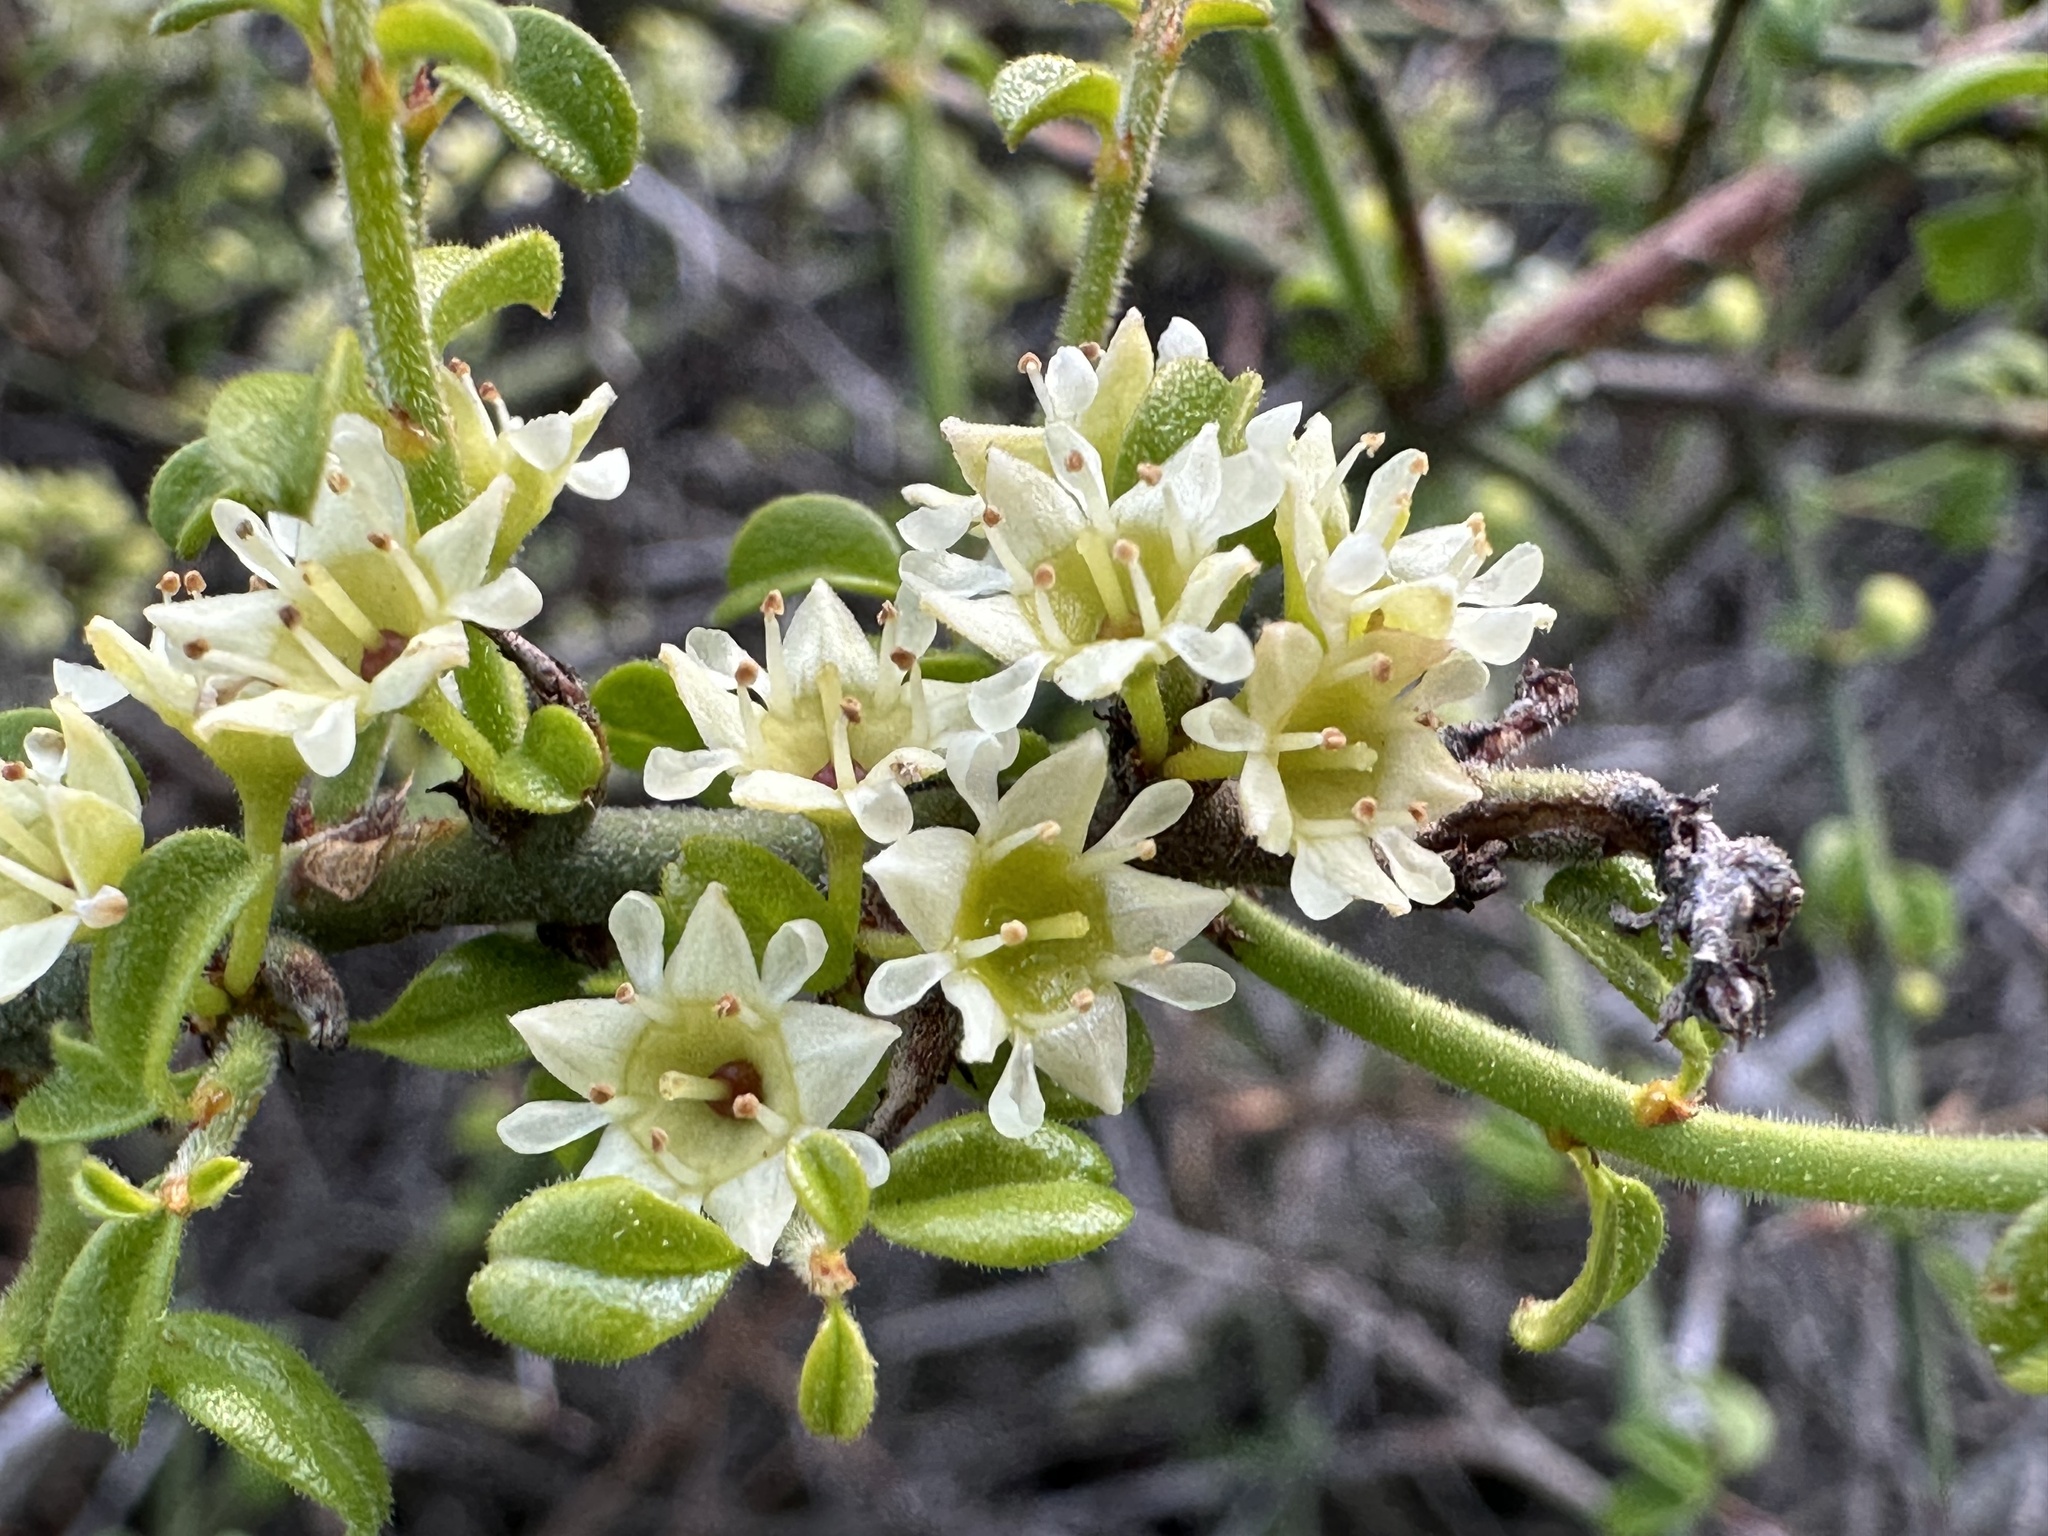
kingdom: Plantae
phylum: Tracheophyta
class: Magnoliopsida
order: Rosales
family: Rhamnaceae
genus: Adolphia
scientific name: Adolphia californica
